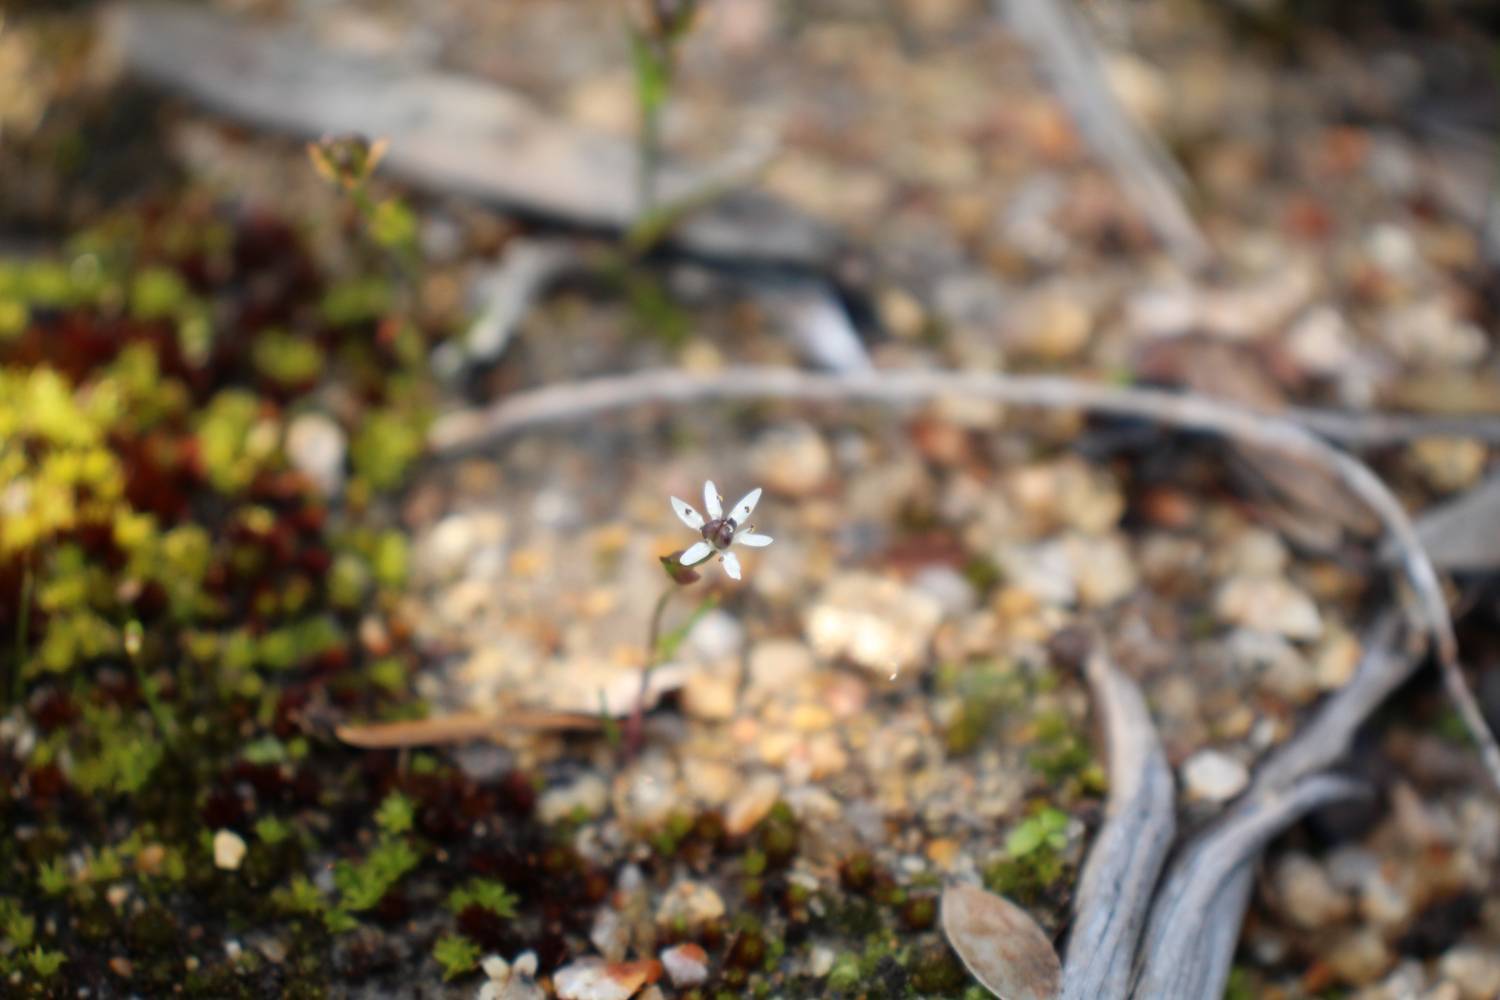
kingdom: Plantae
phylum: Tracheophyta
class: Liliopsida
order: Liliales
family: Colchicaceae
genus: Wurmbea
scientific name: Wurmbea tenella
